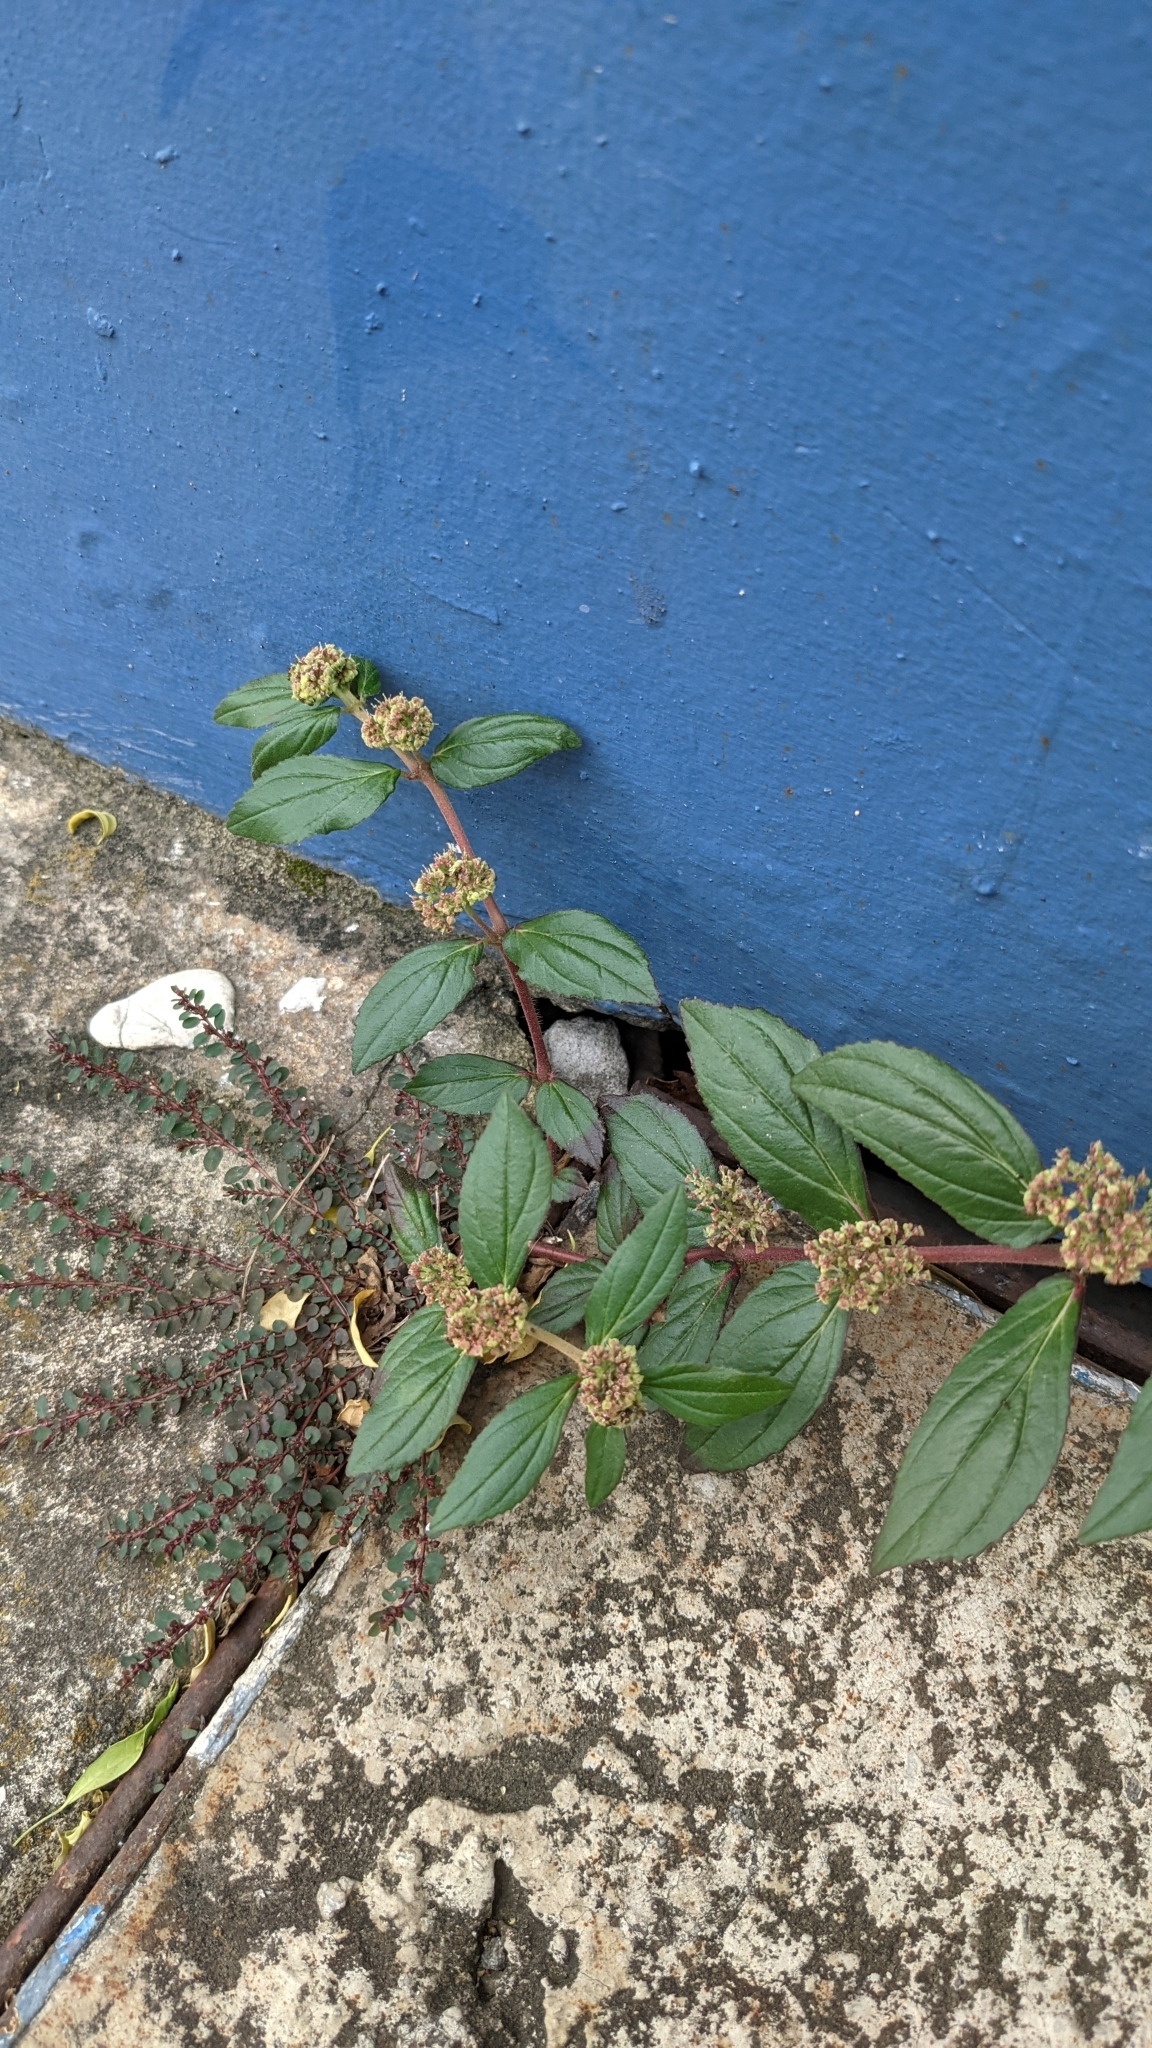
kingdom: Plantae
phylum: Tracheophyta
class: Magnoliopsida
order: Malpighiales
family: Euphorbiaceae
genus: Euphorbia
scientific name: Euphorbia hirta
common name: Pillpod sandmat
